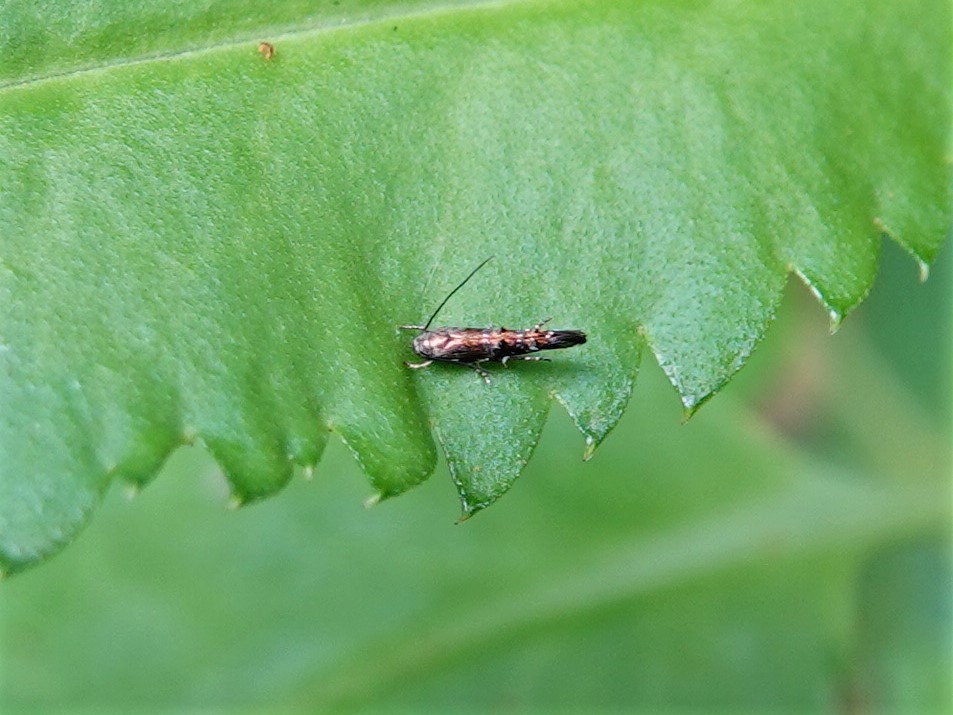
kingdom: Animalia
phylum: Arthropoda
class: Insecta
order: Lepidoptera
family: Momphidae
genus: Zapyrastra
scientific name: Zapyrastra calliphana
